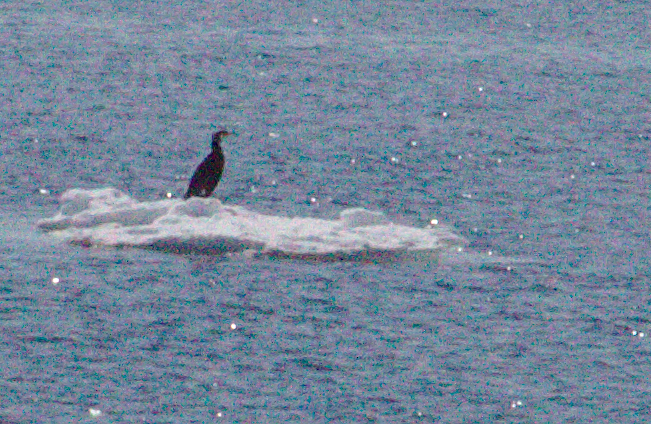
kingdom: Animalia
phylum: Chordata
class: Aves
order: Suliformes
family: Phalacrocoracidae
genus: Phalacrocorax
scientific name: Phalacrocorax carbo
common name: Great cormorant
